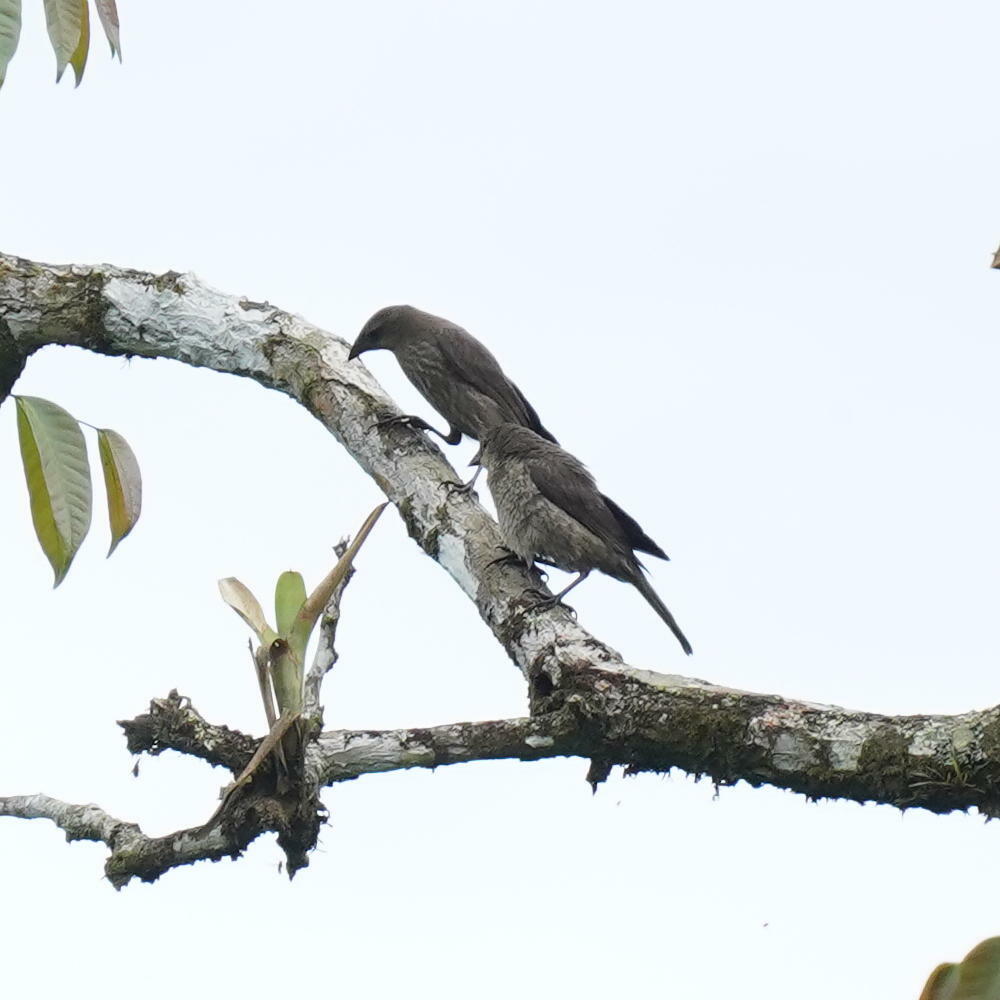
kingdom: Animalia
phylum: Chordata
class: Aves
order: Passeriformes
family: Icteridae
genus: Molothrus
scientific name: Molothrus bonariensis
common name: Shiny cowbird
